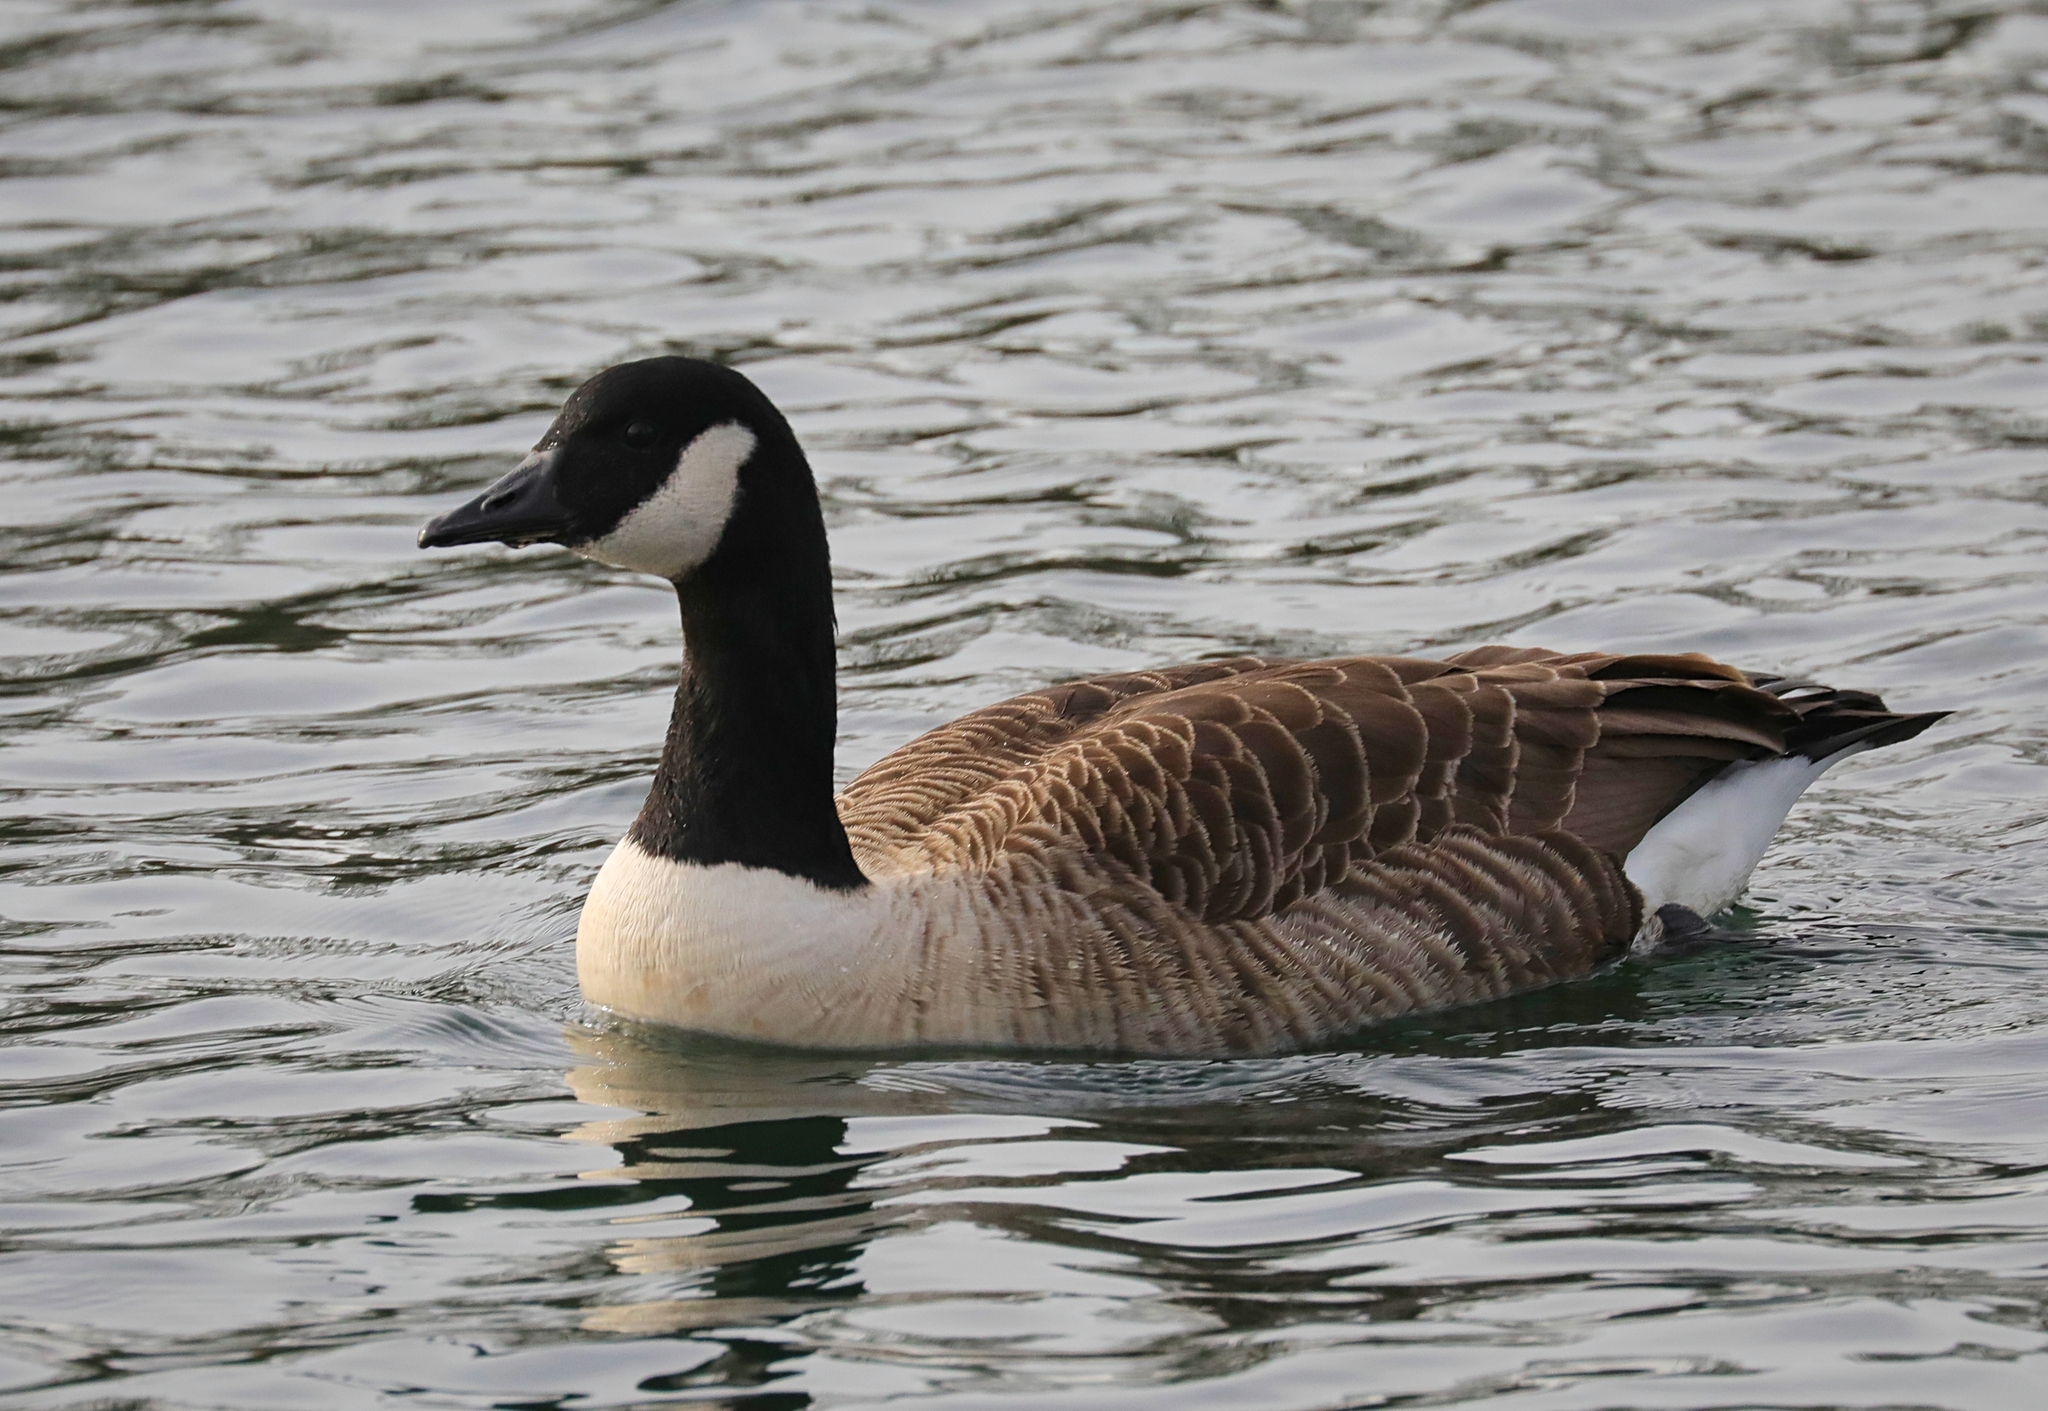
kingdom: Animalia
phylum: Chordata
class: Aves
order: Anseriformes
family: Anatidae
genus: Branta
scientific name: Branta canadensis
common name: Canada goose
